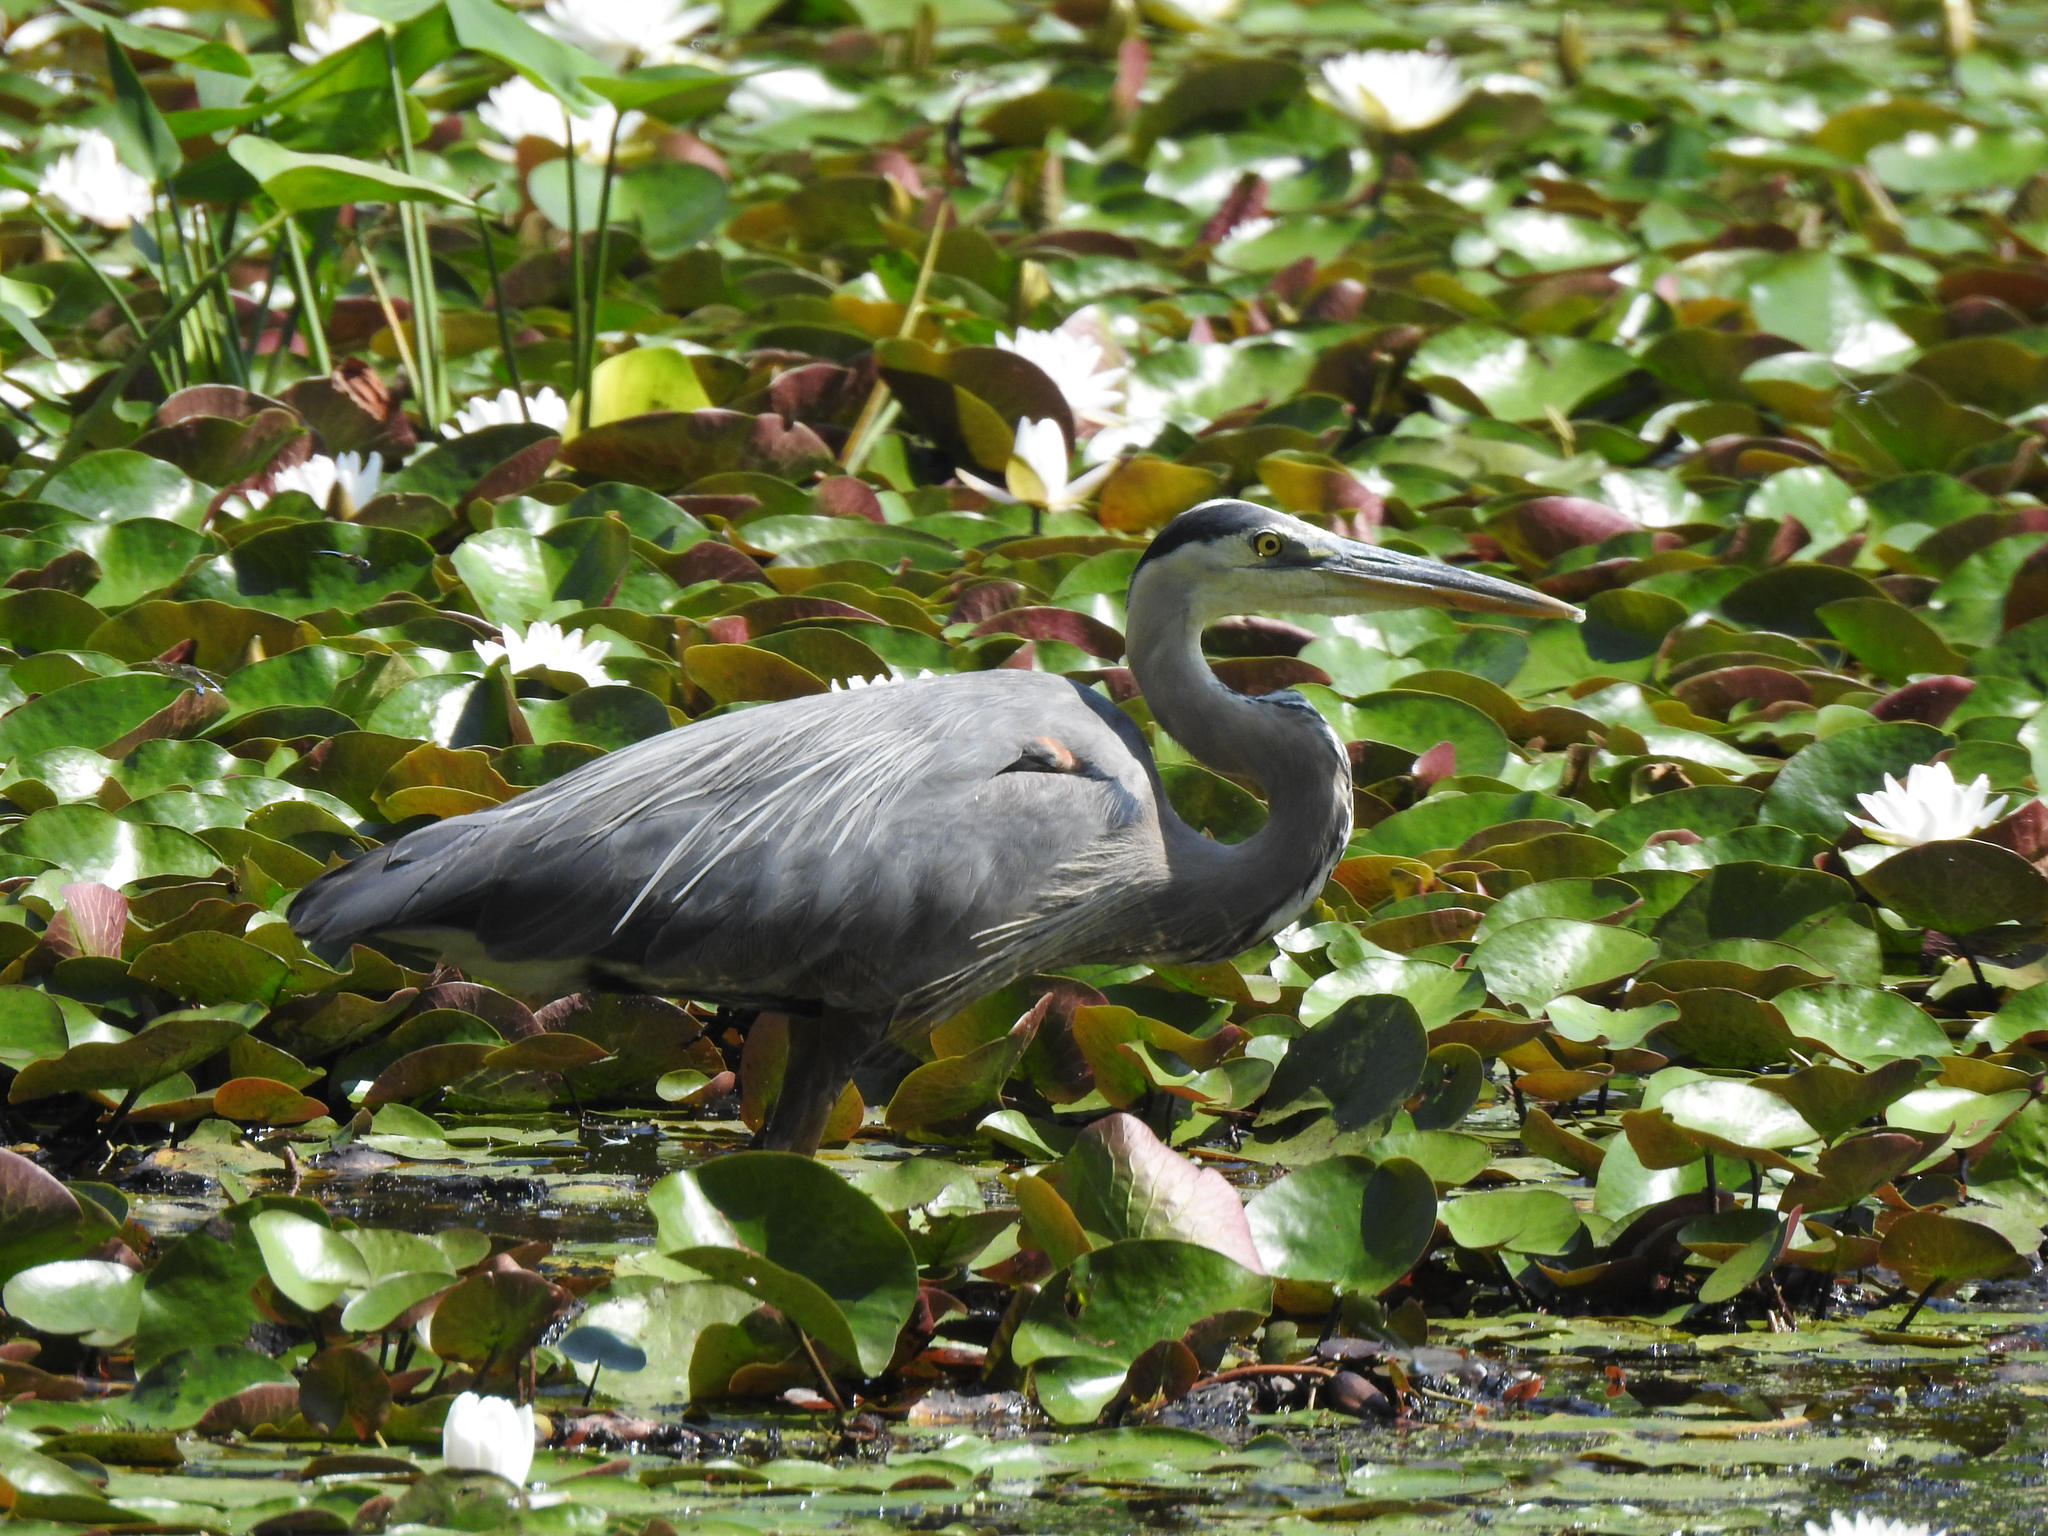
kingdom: Animalia
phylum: Chordata
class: Aves
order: Pelecaniformes
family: Ardeidae
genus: Ardea
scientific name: Ardea herodias
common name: Great blue heron
